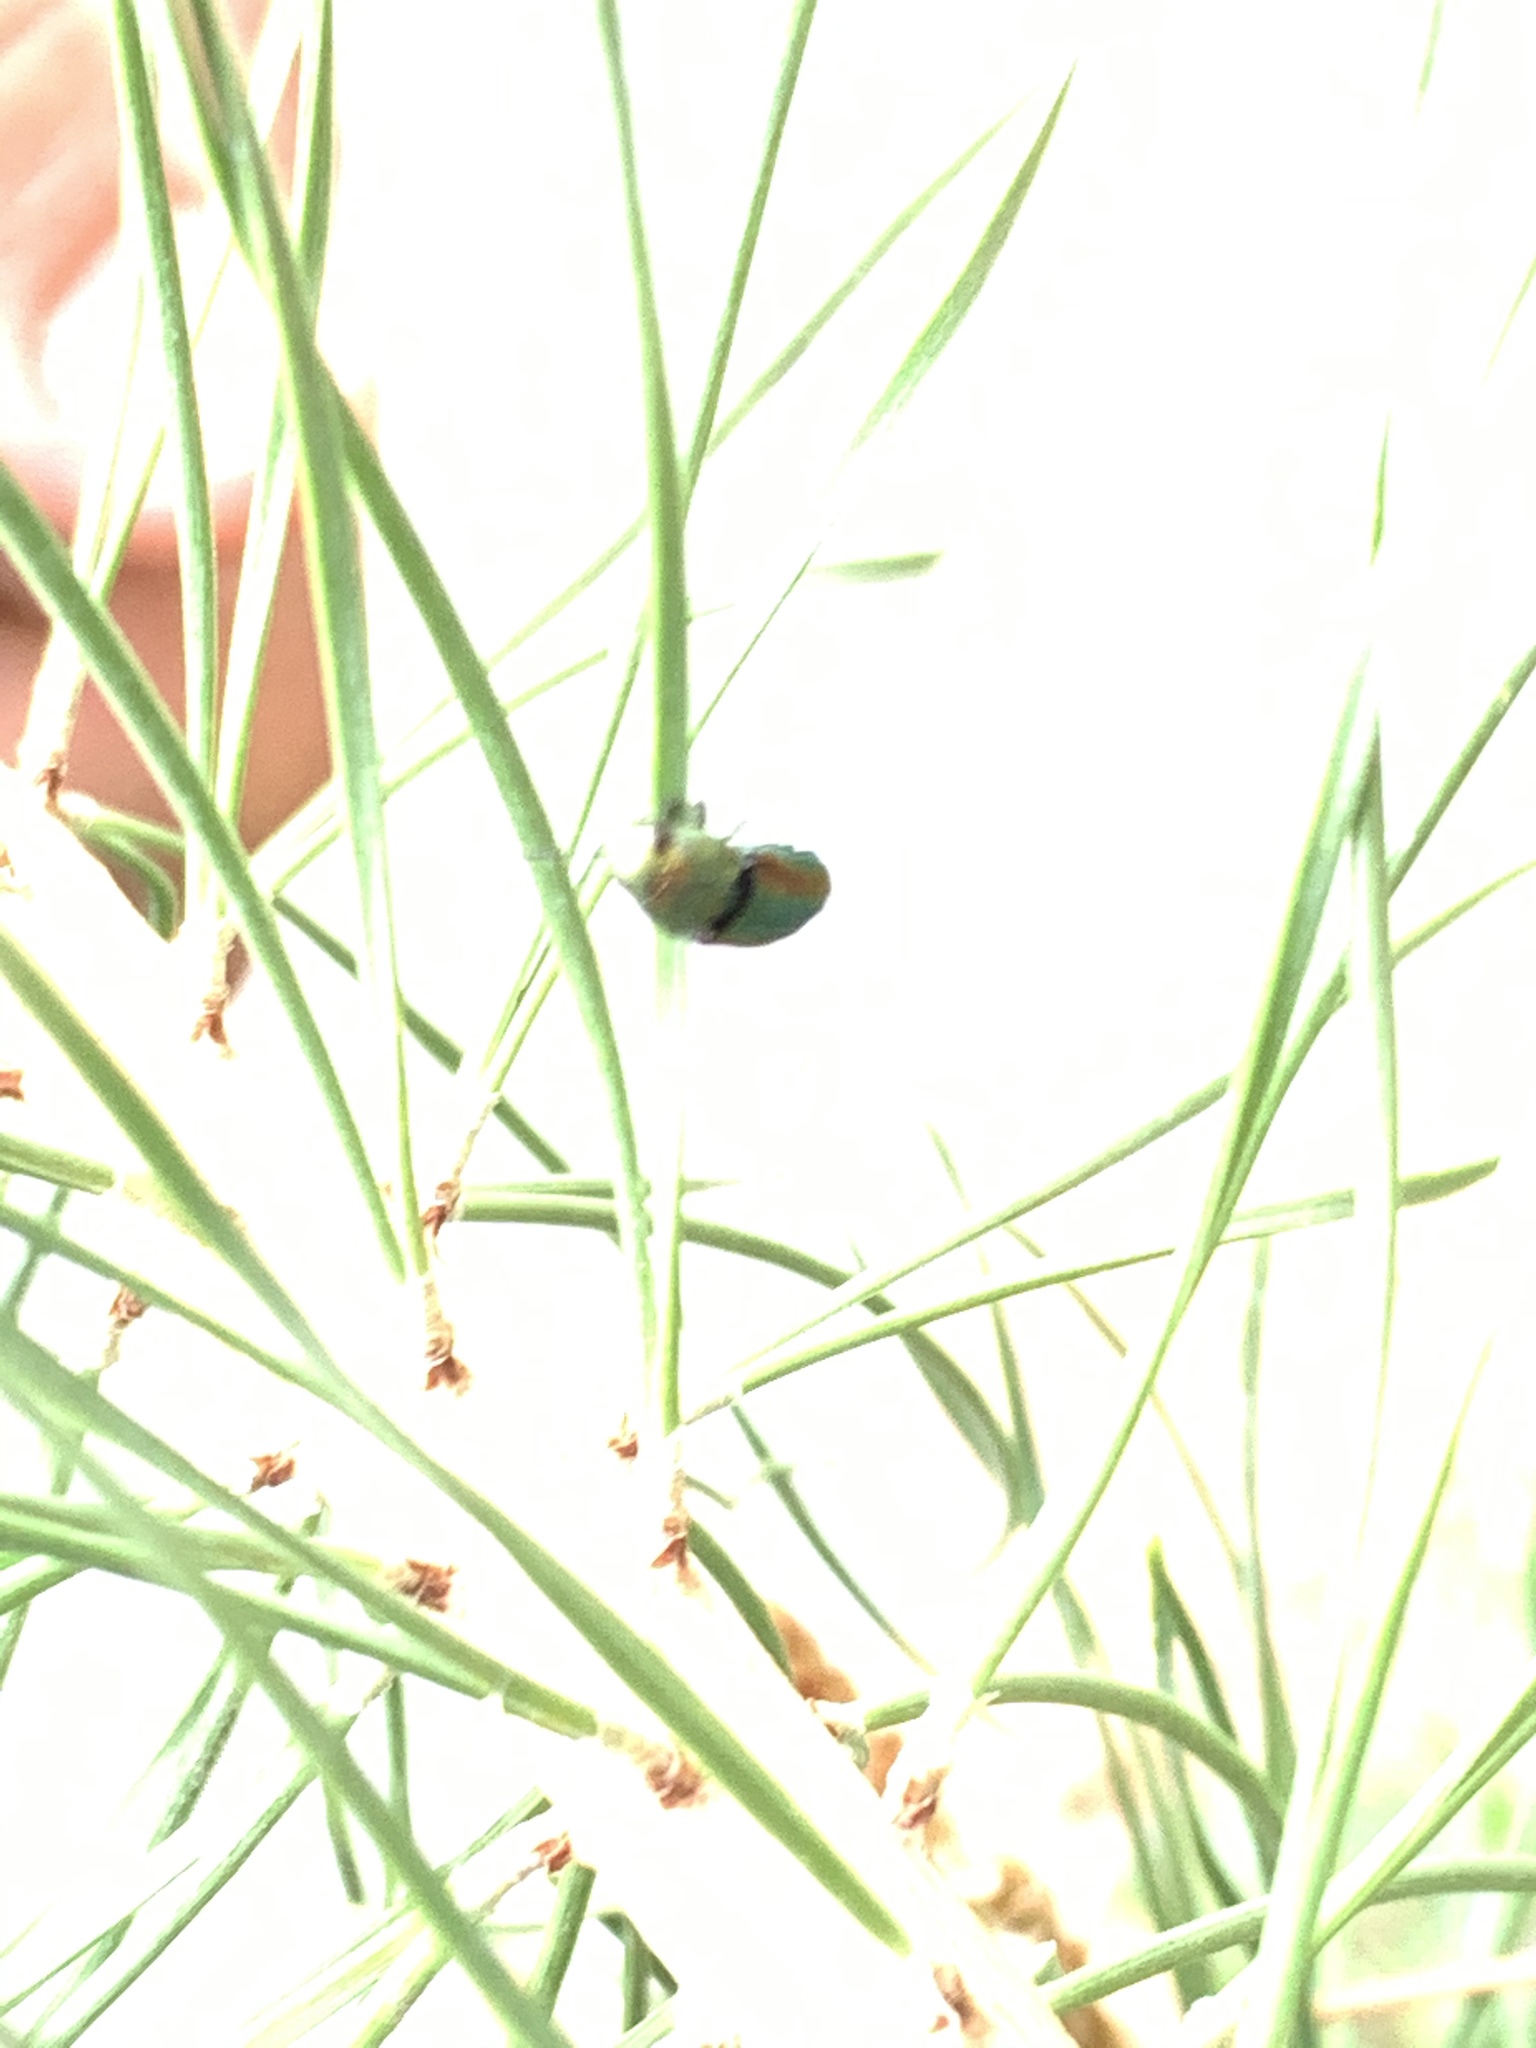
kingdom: Animalia
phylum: Arthropoda
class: Insecta
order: Coleoptera
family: Buprestidae
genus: Chrysophana
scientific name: Chrysophana placida
